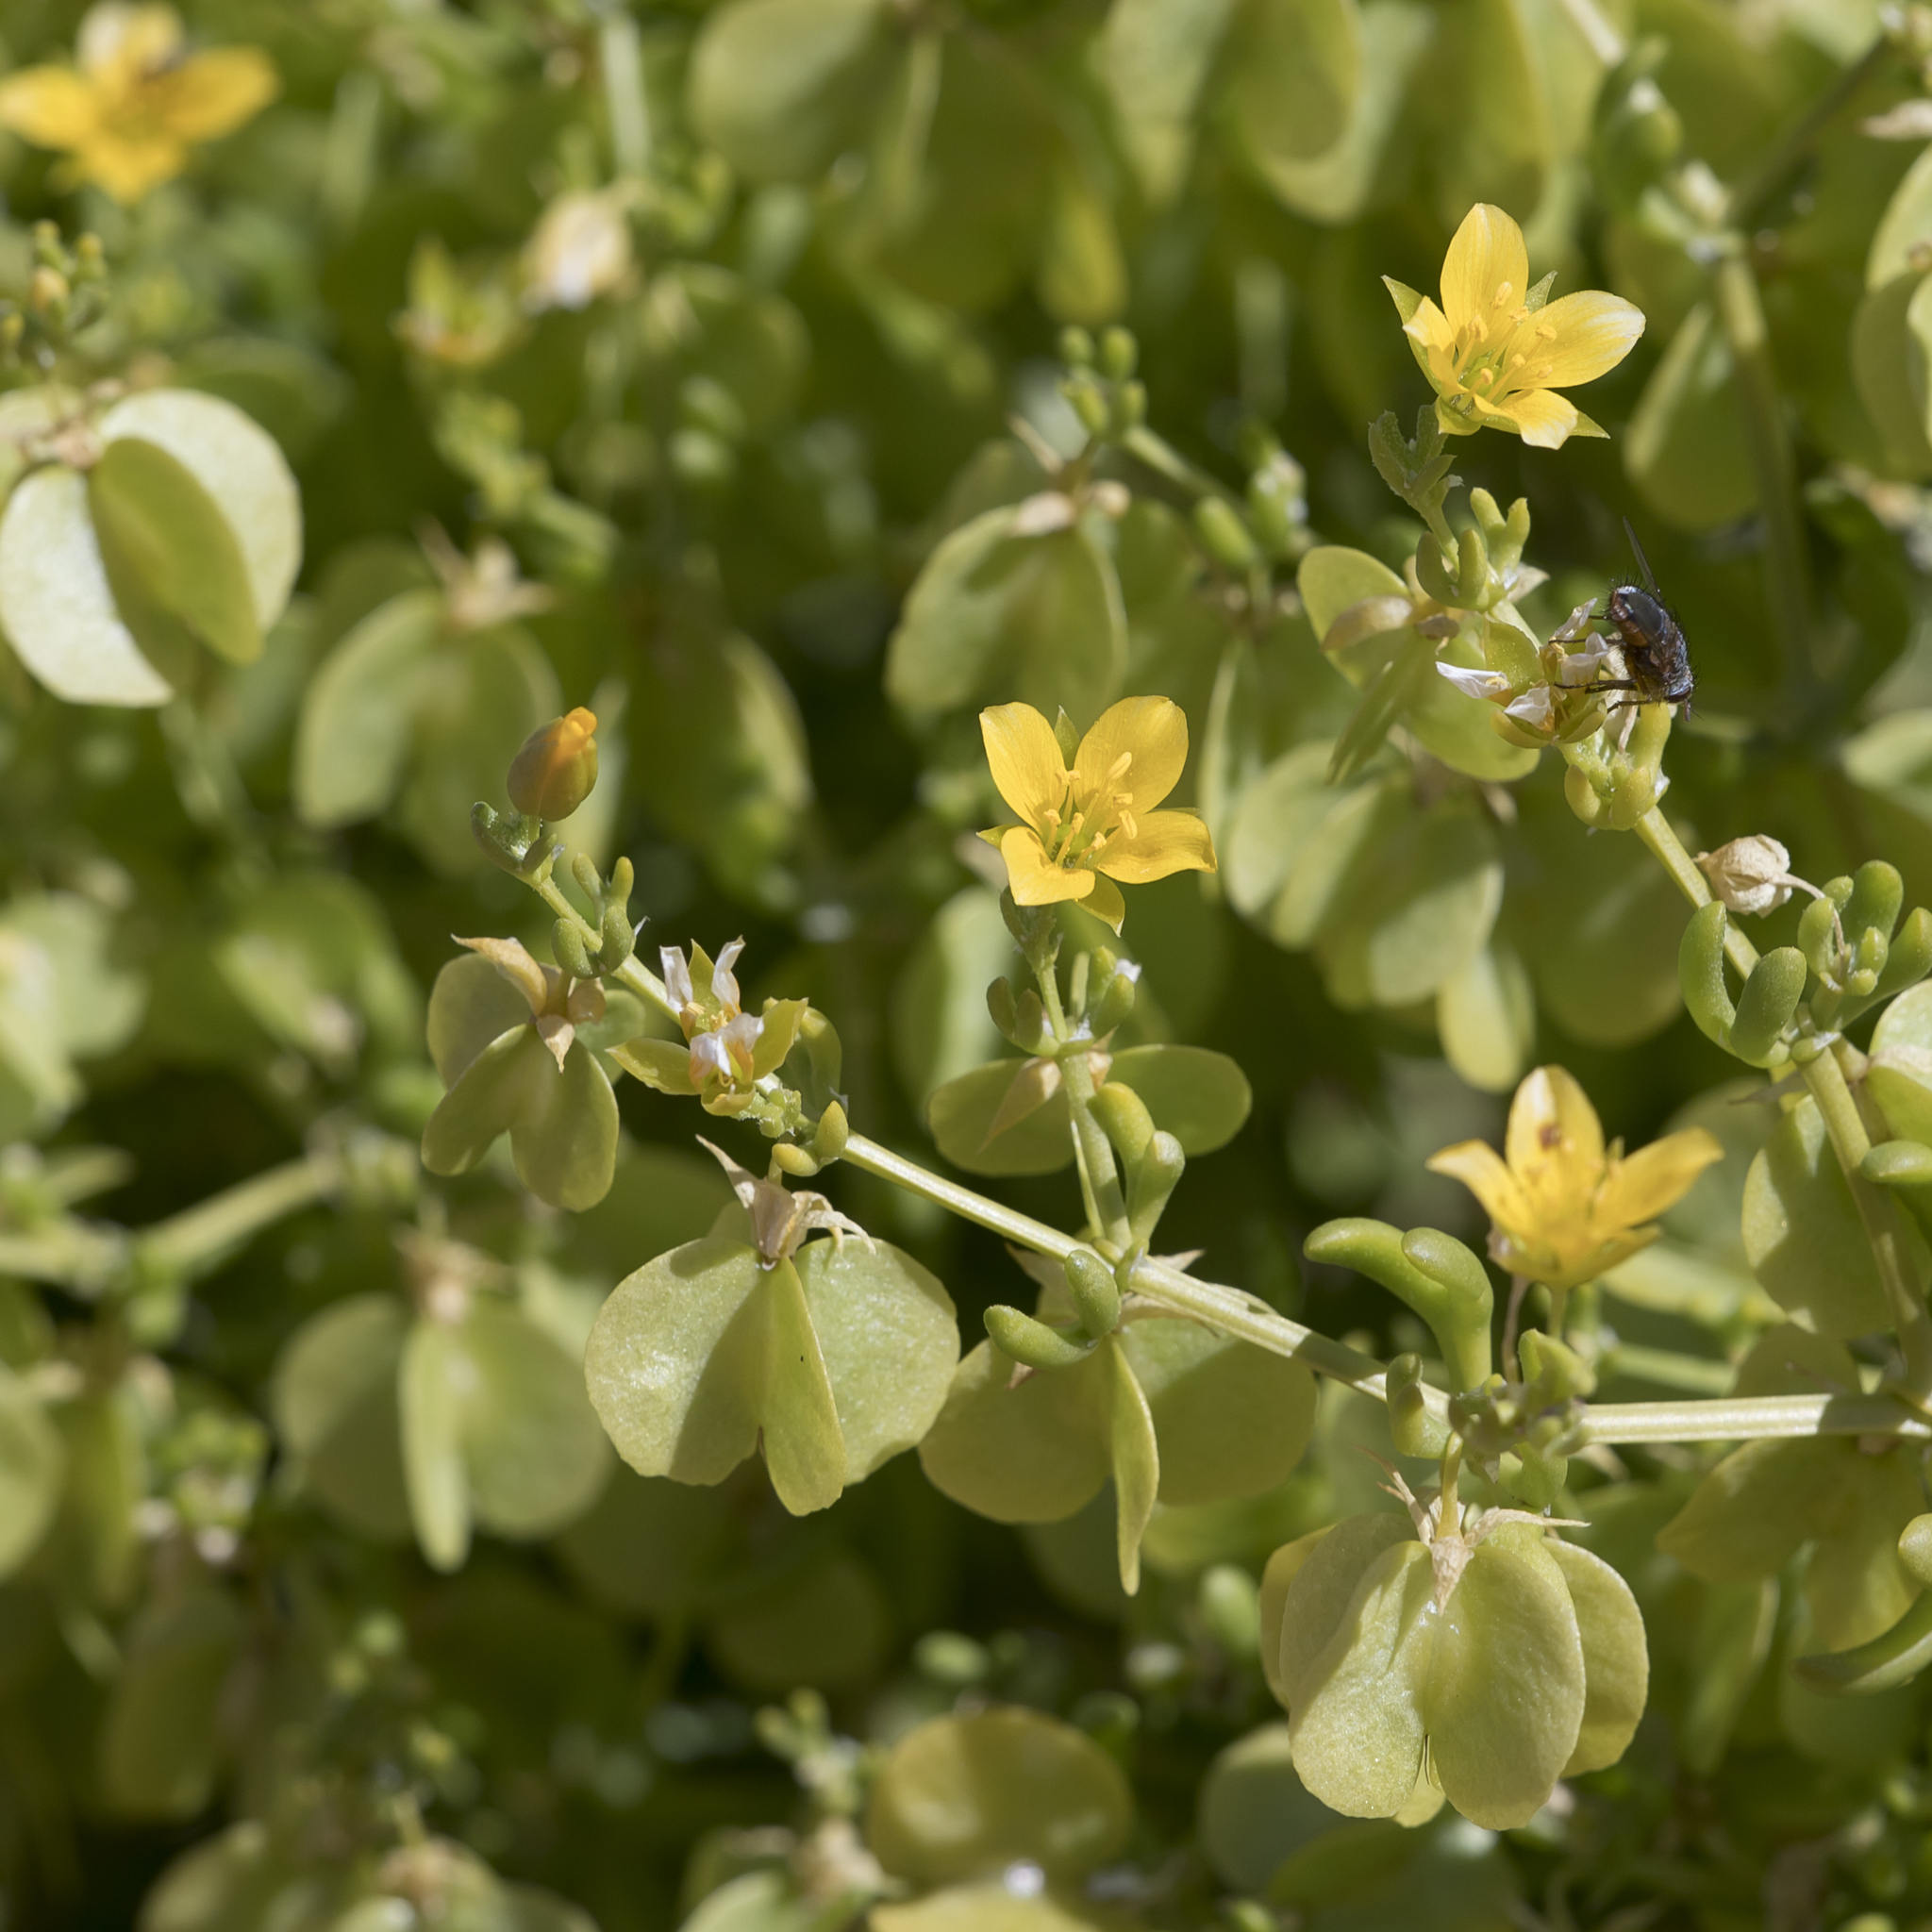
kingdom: Plantae
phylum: Tracheophyta
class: Magnoliopsida
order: Zygophyllales
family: Zygophyllaceae
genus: Roepera
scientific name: Roepera aurantiaca
